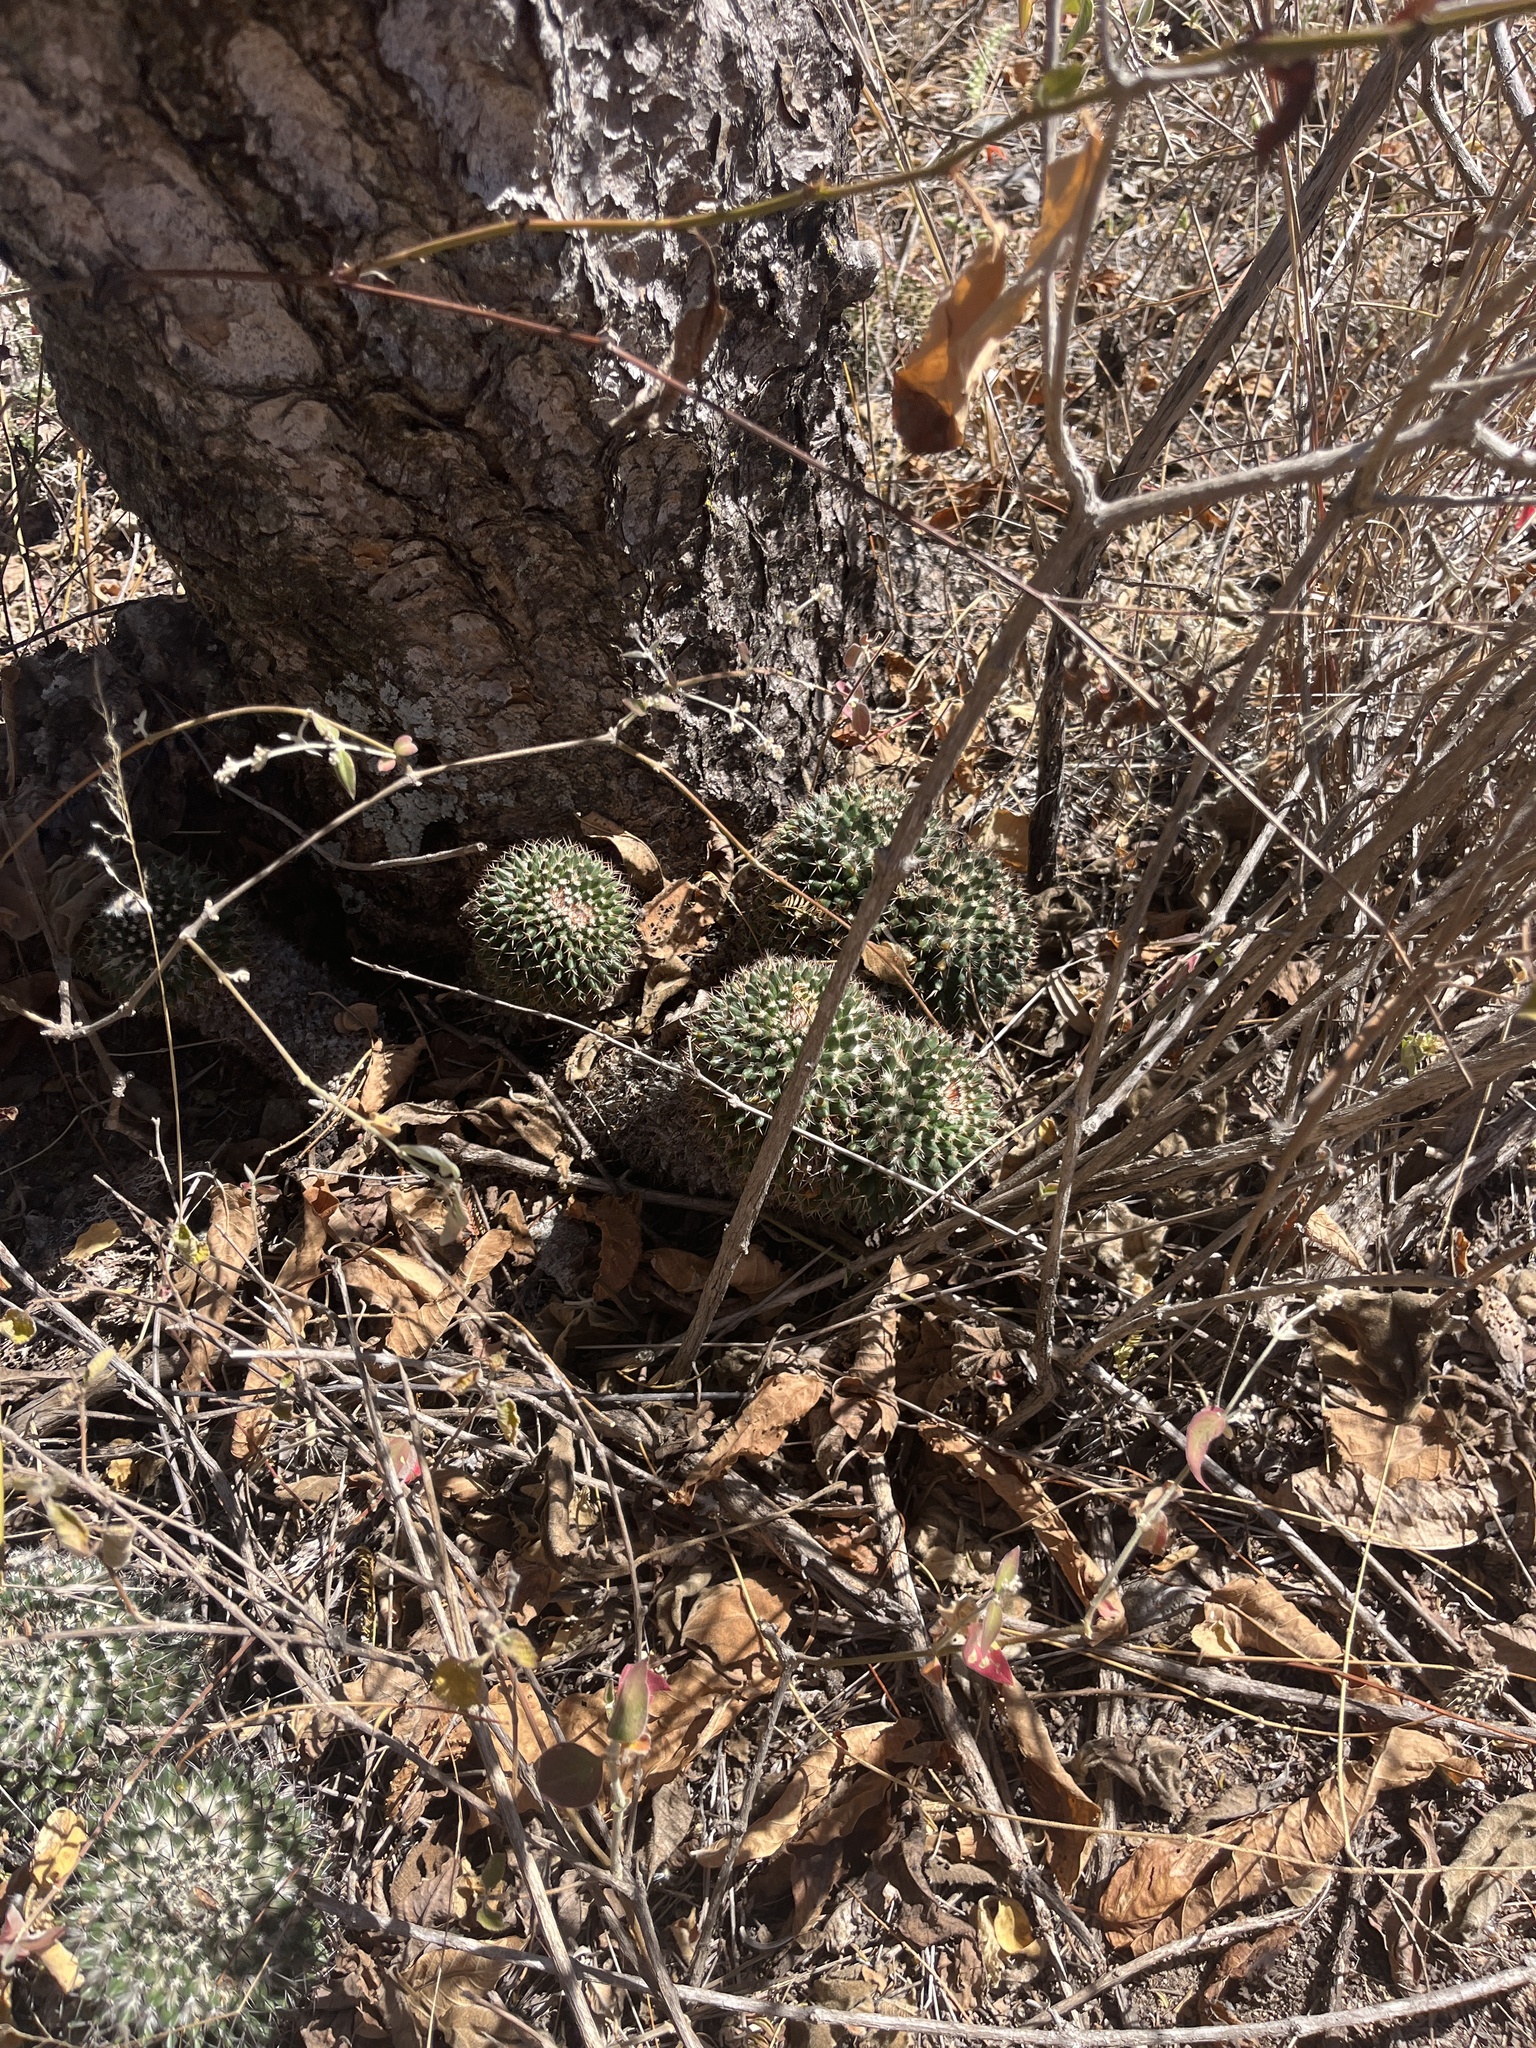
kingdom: Plantae
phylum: Tracheophyta
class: Magnoliopsida
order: Caryophyllales
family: Cactaceae
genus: Mammillaria
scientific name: Mammillaria karwinskiana
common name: Royal cross
